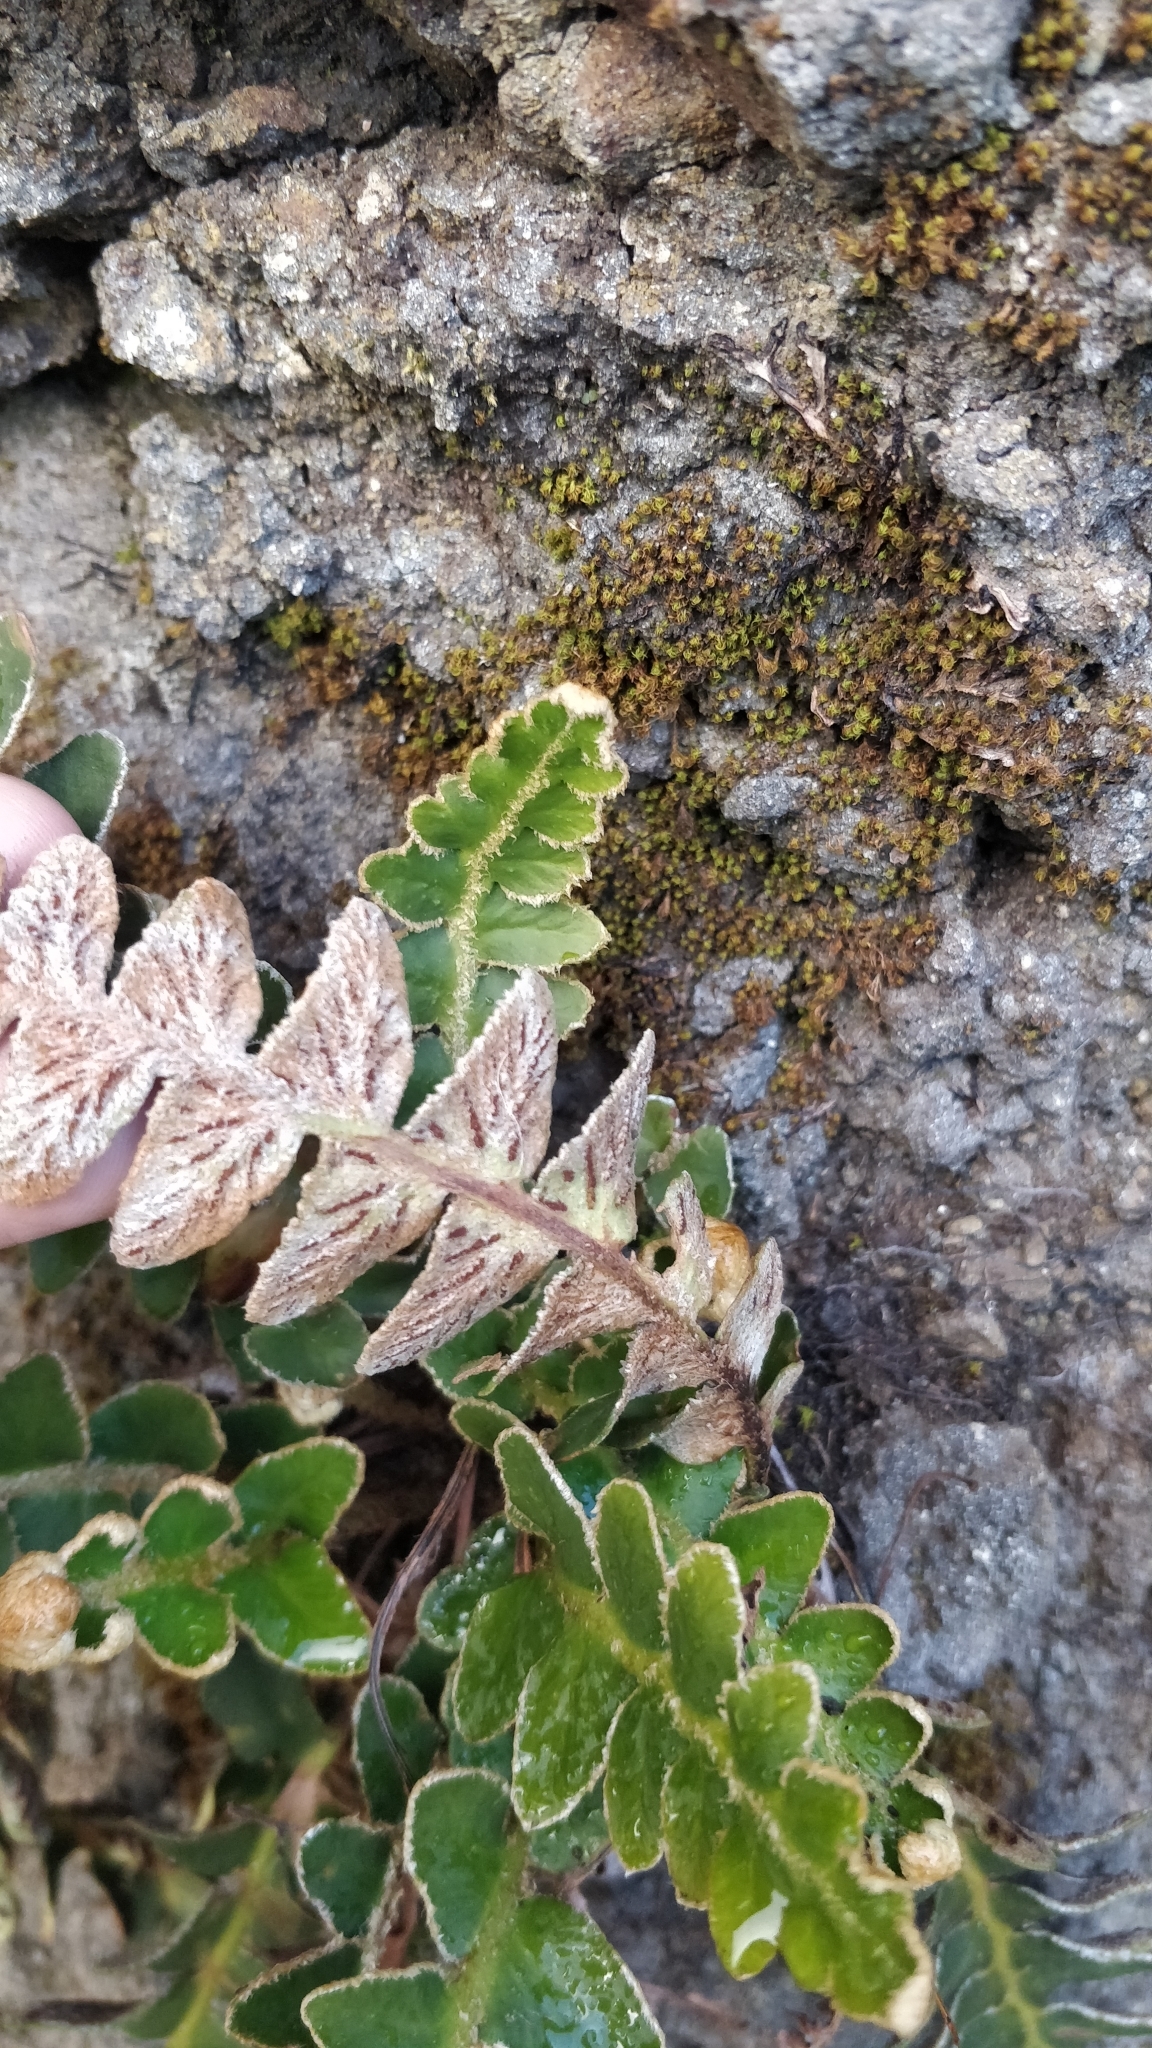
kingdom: Plantae
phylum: Tracheophyta
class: Polypodiopsida
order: Polypodiales
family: Aspleniaceae
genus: Asplenium
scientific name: Asplenium lolegnamense
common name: Madeira rustyback fern
